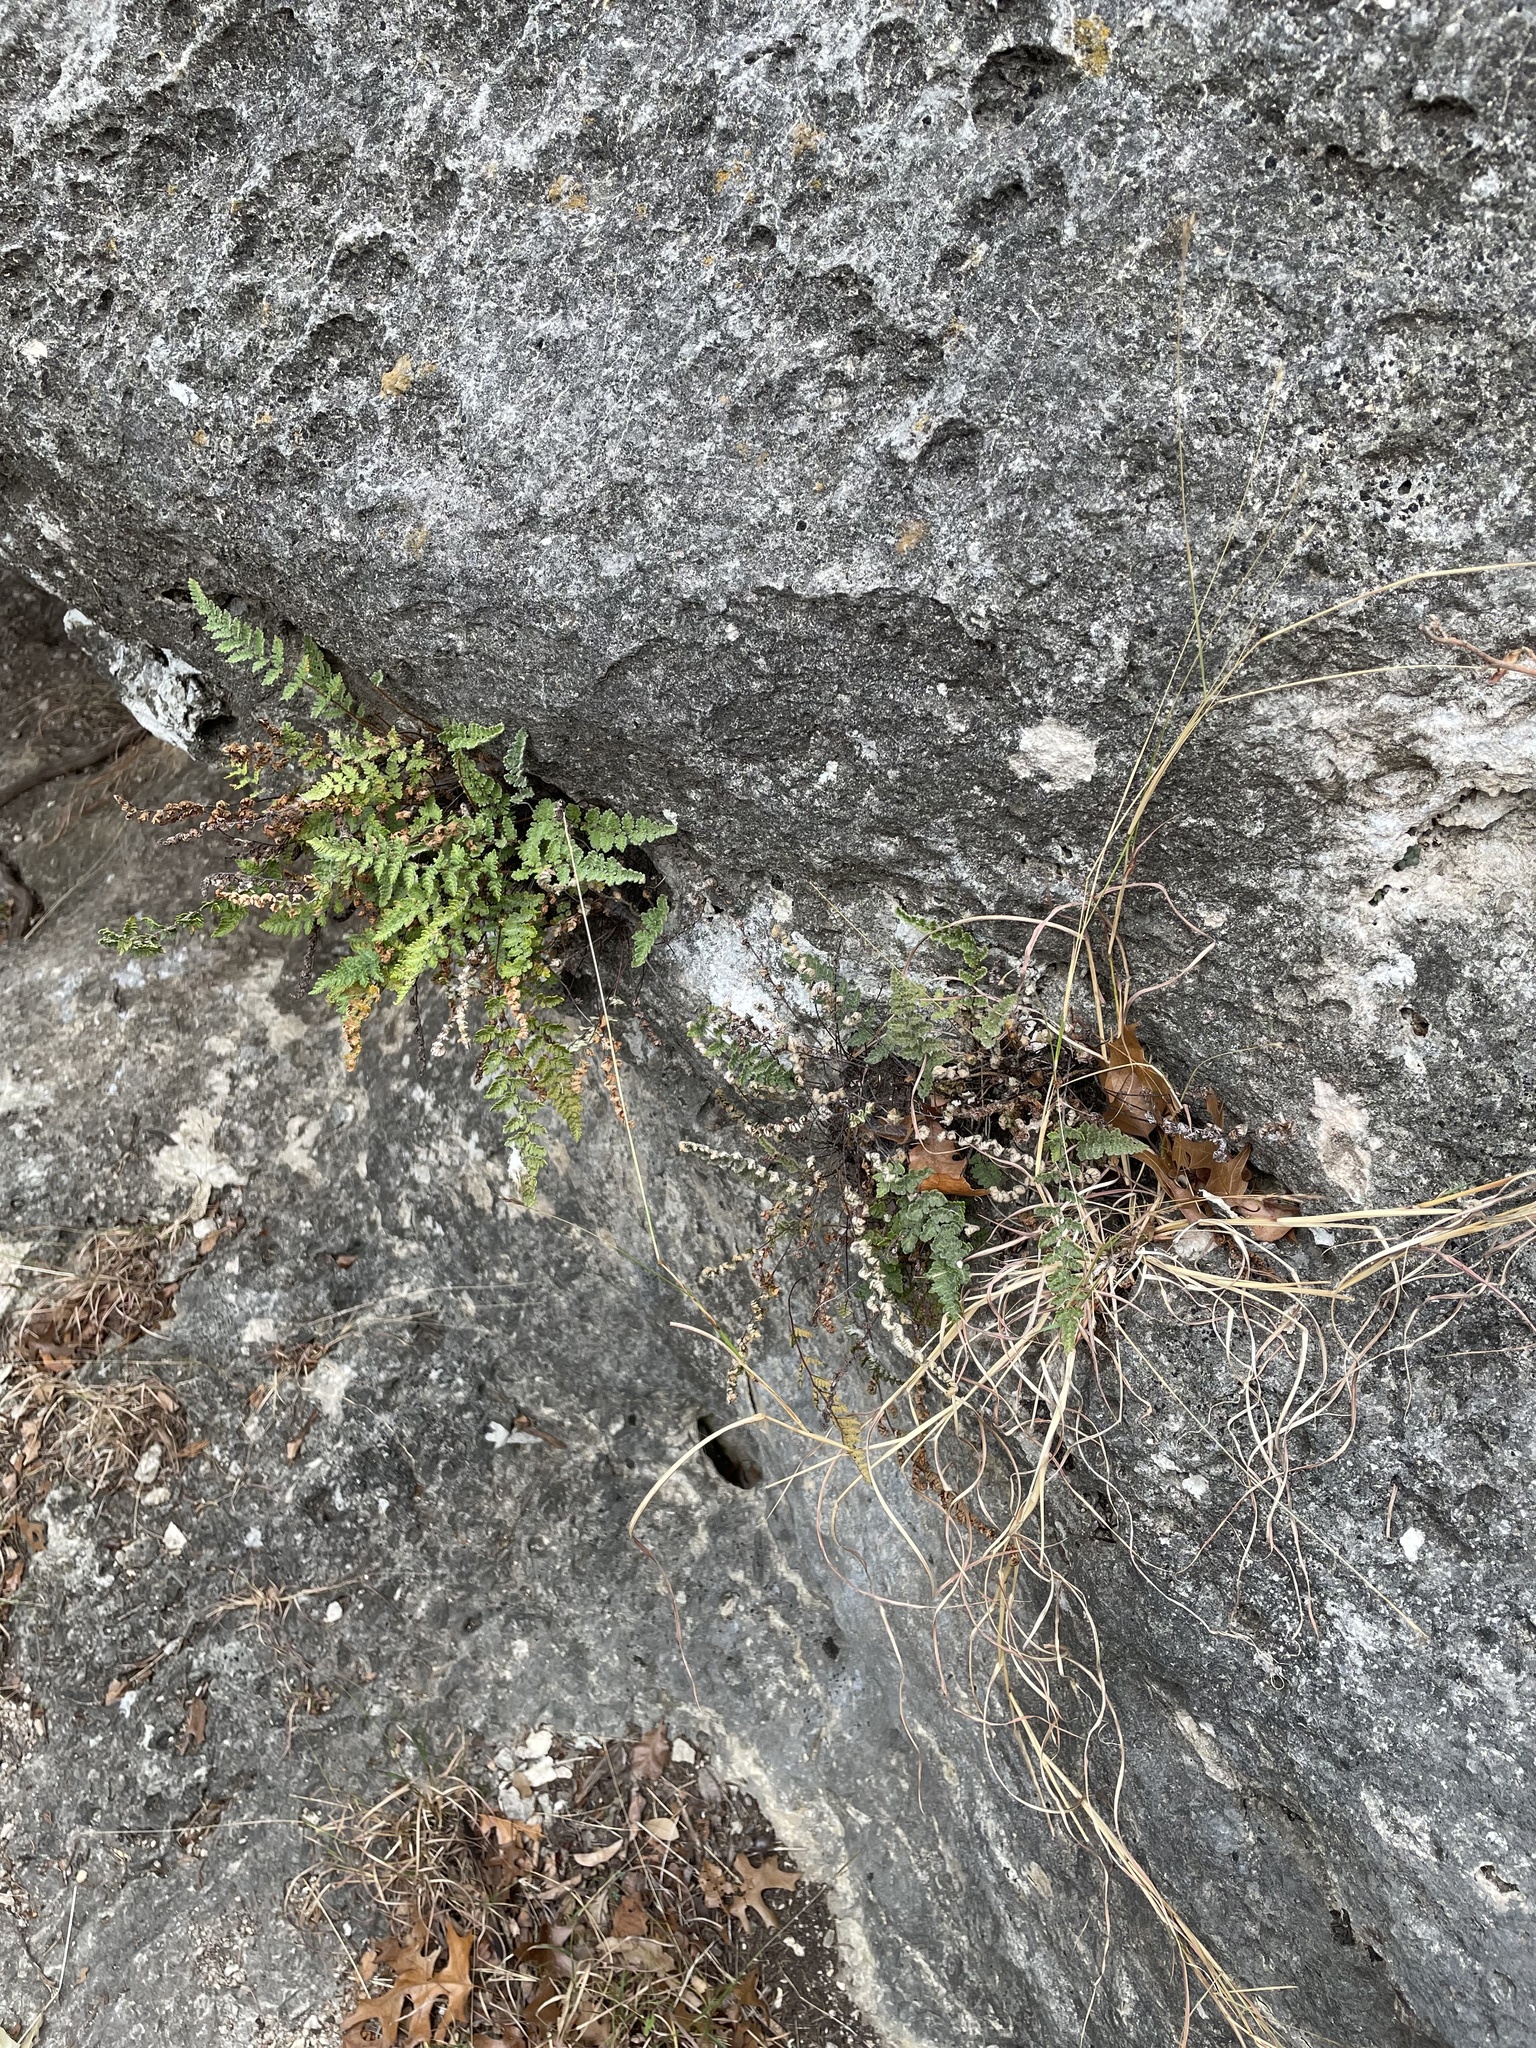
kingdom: Plantae
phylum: Tracheophyta
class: Polypodiopsida
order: Polypodiales
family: Pteridaceae
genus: Myriopteris
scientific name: Myriopteris rufa
